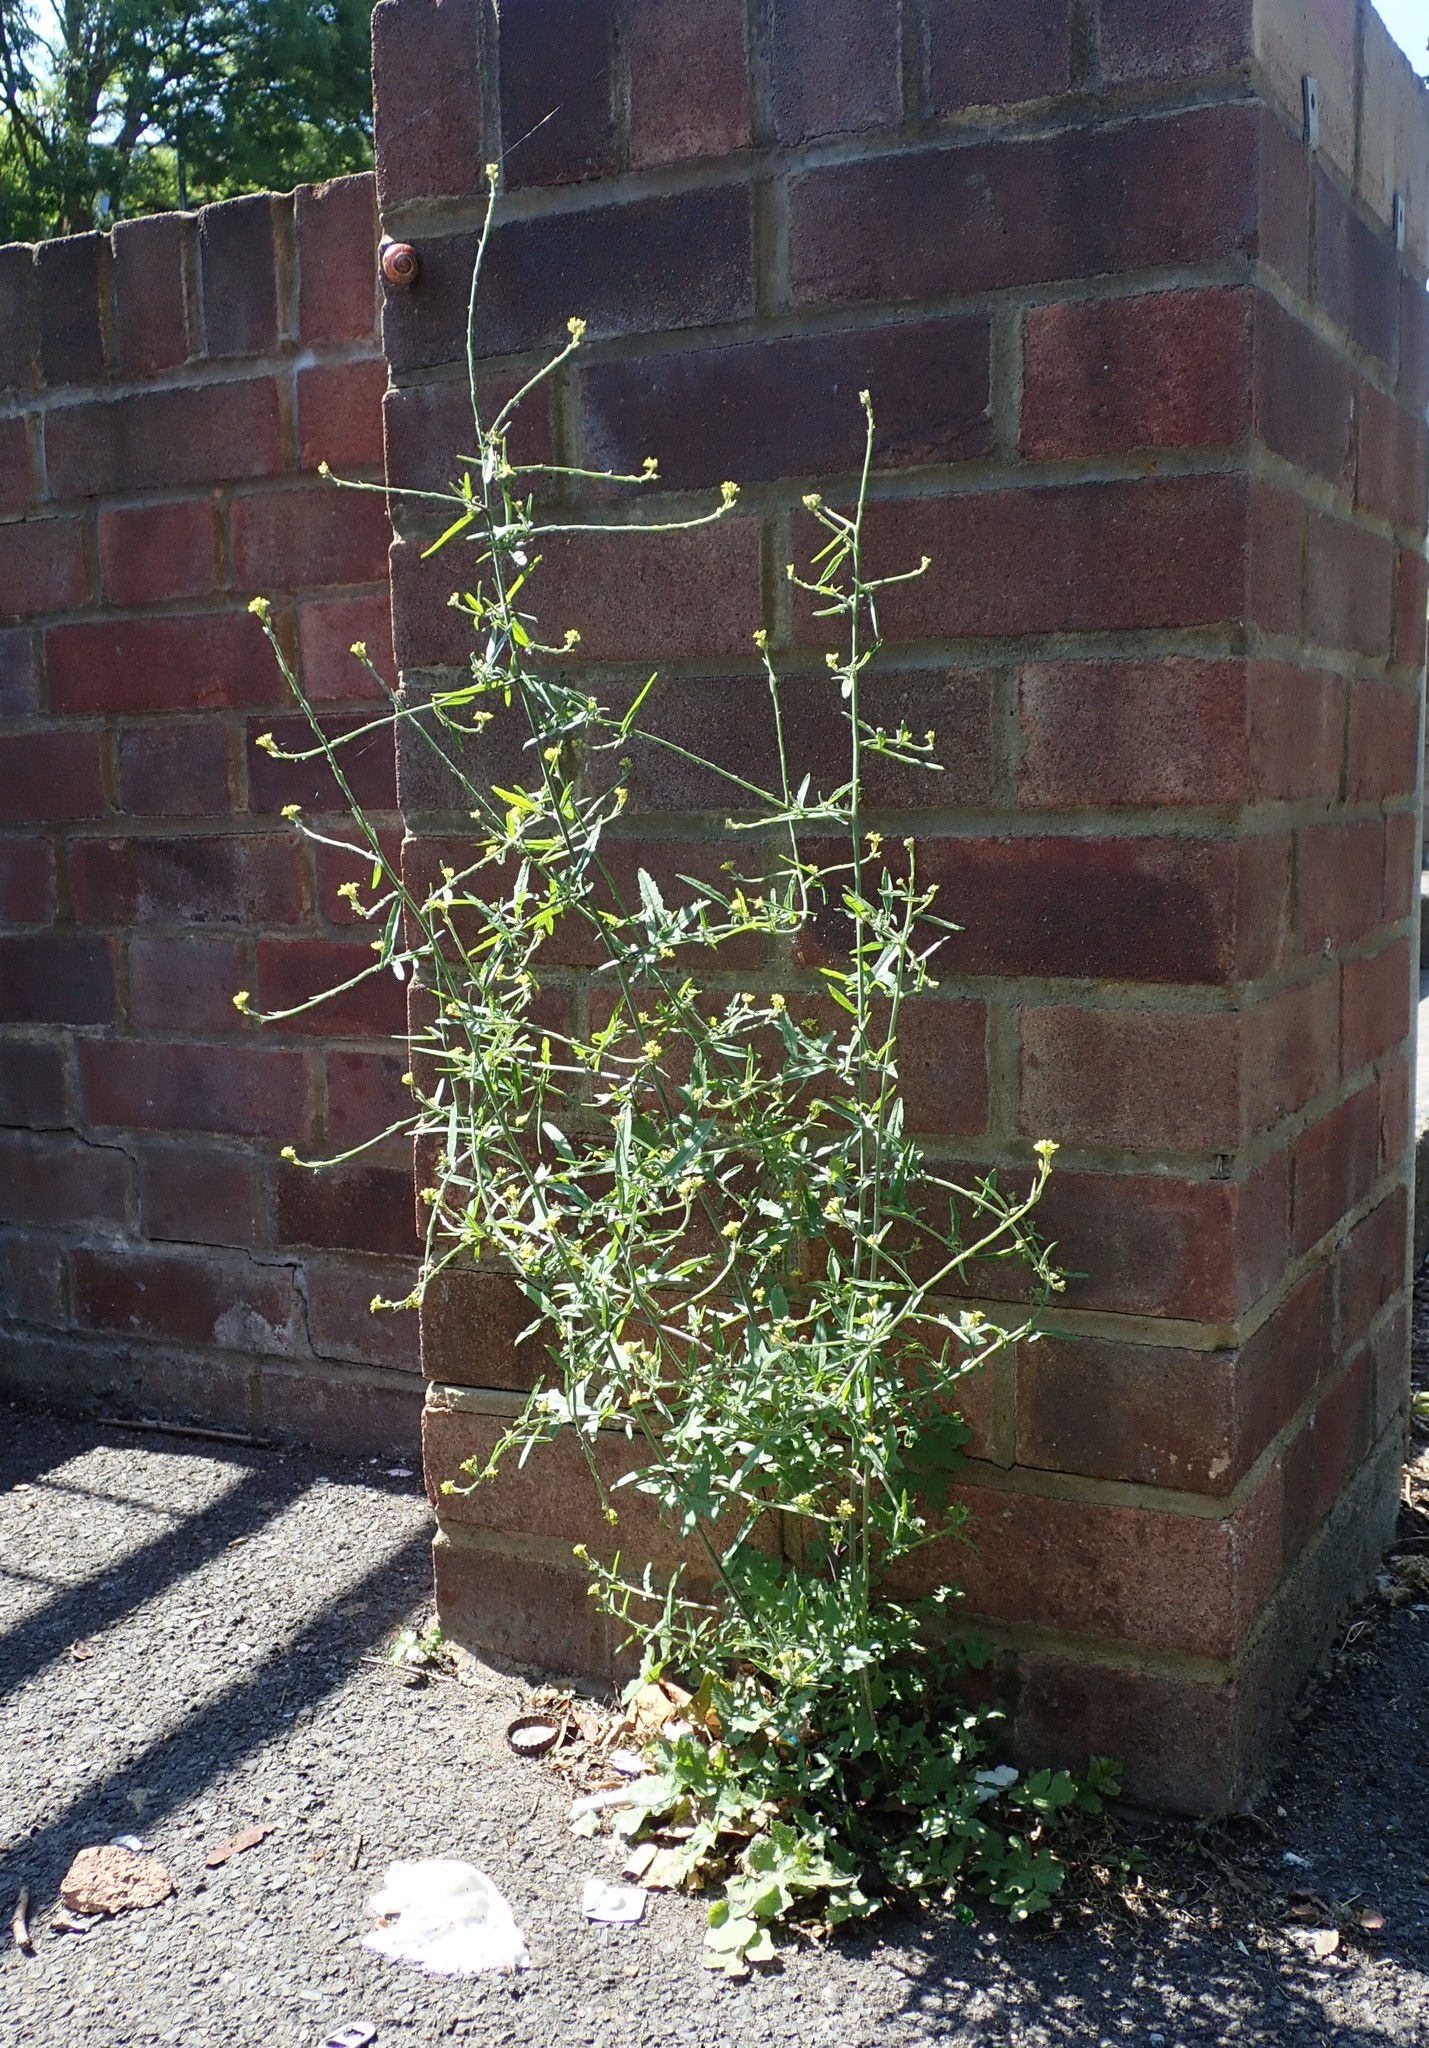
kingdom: Plantae
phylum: Tracheophyta
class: Magnoliopsida
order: Brassicales
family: Brassicaceae
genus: Sisymbrium
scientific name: Sisymbrium officinale
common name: Hedge mustard
